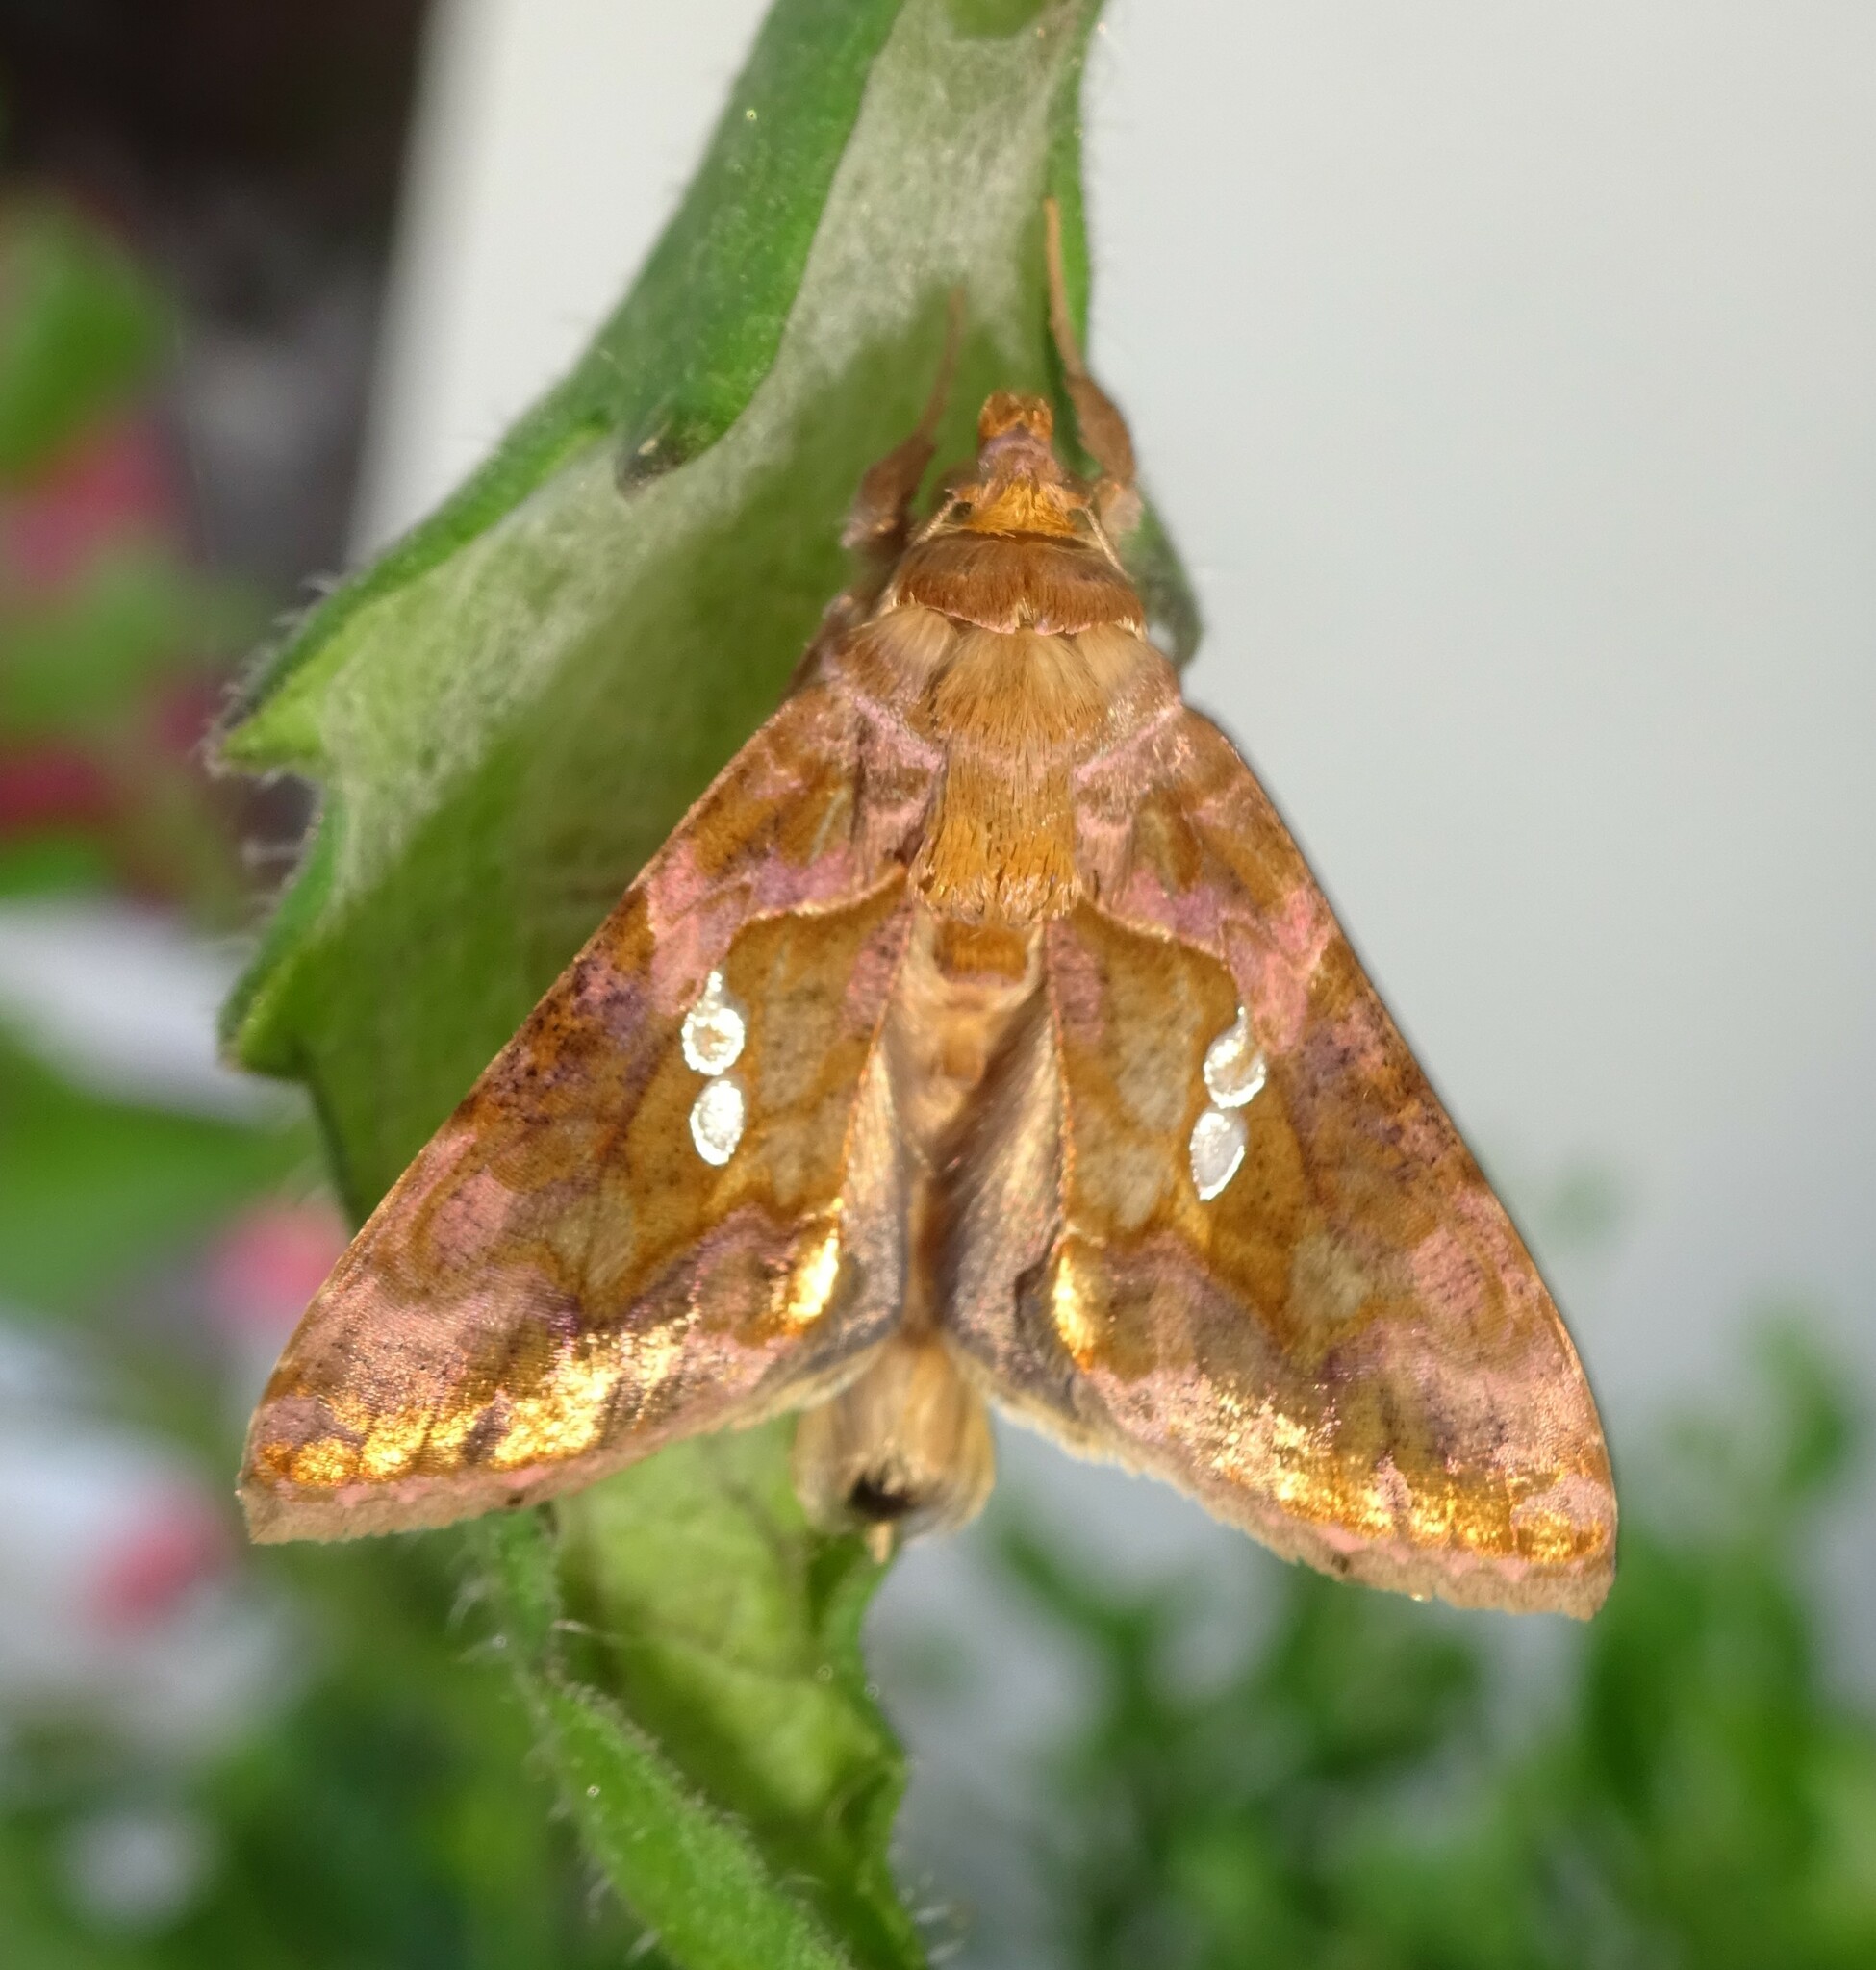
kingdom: Animalia
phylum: Arthropoda
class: Insecta
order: Lepidoptera
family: Noctuidae
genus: Chrysodeixis
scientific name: Chrysodeixis chalcites
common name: Golden twin-spot
